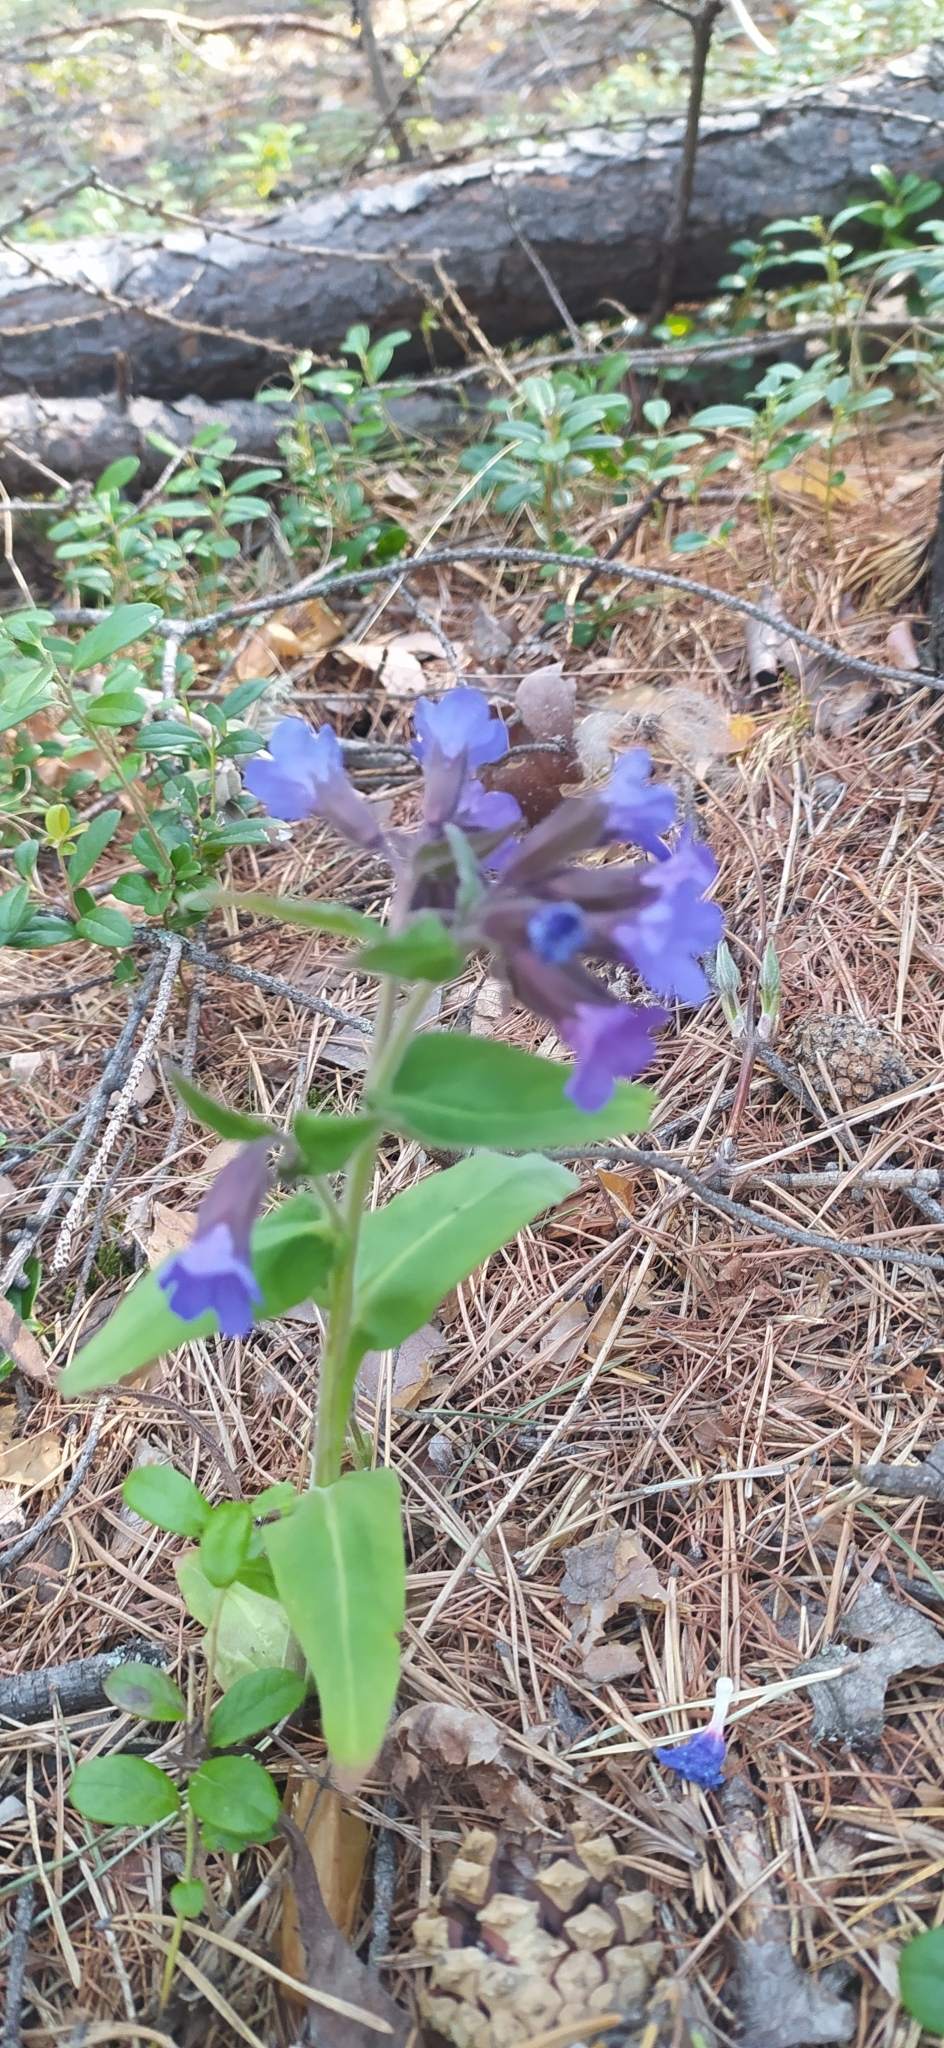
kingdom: Plantae
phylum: Tracheophyta
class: Magnoliopsida
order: Boraginales
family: Boraginaceae
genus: Pulmonaria
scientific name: Pulmonaria mollis
